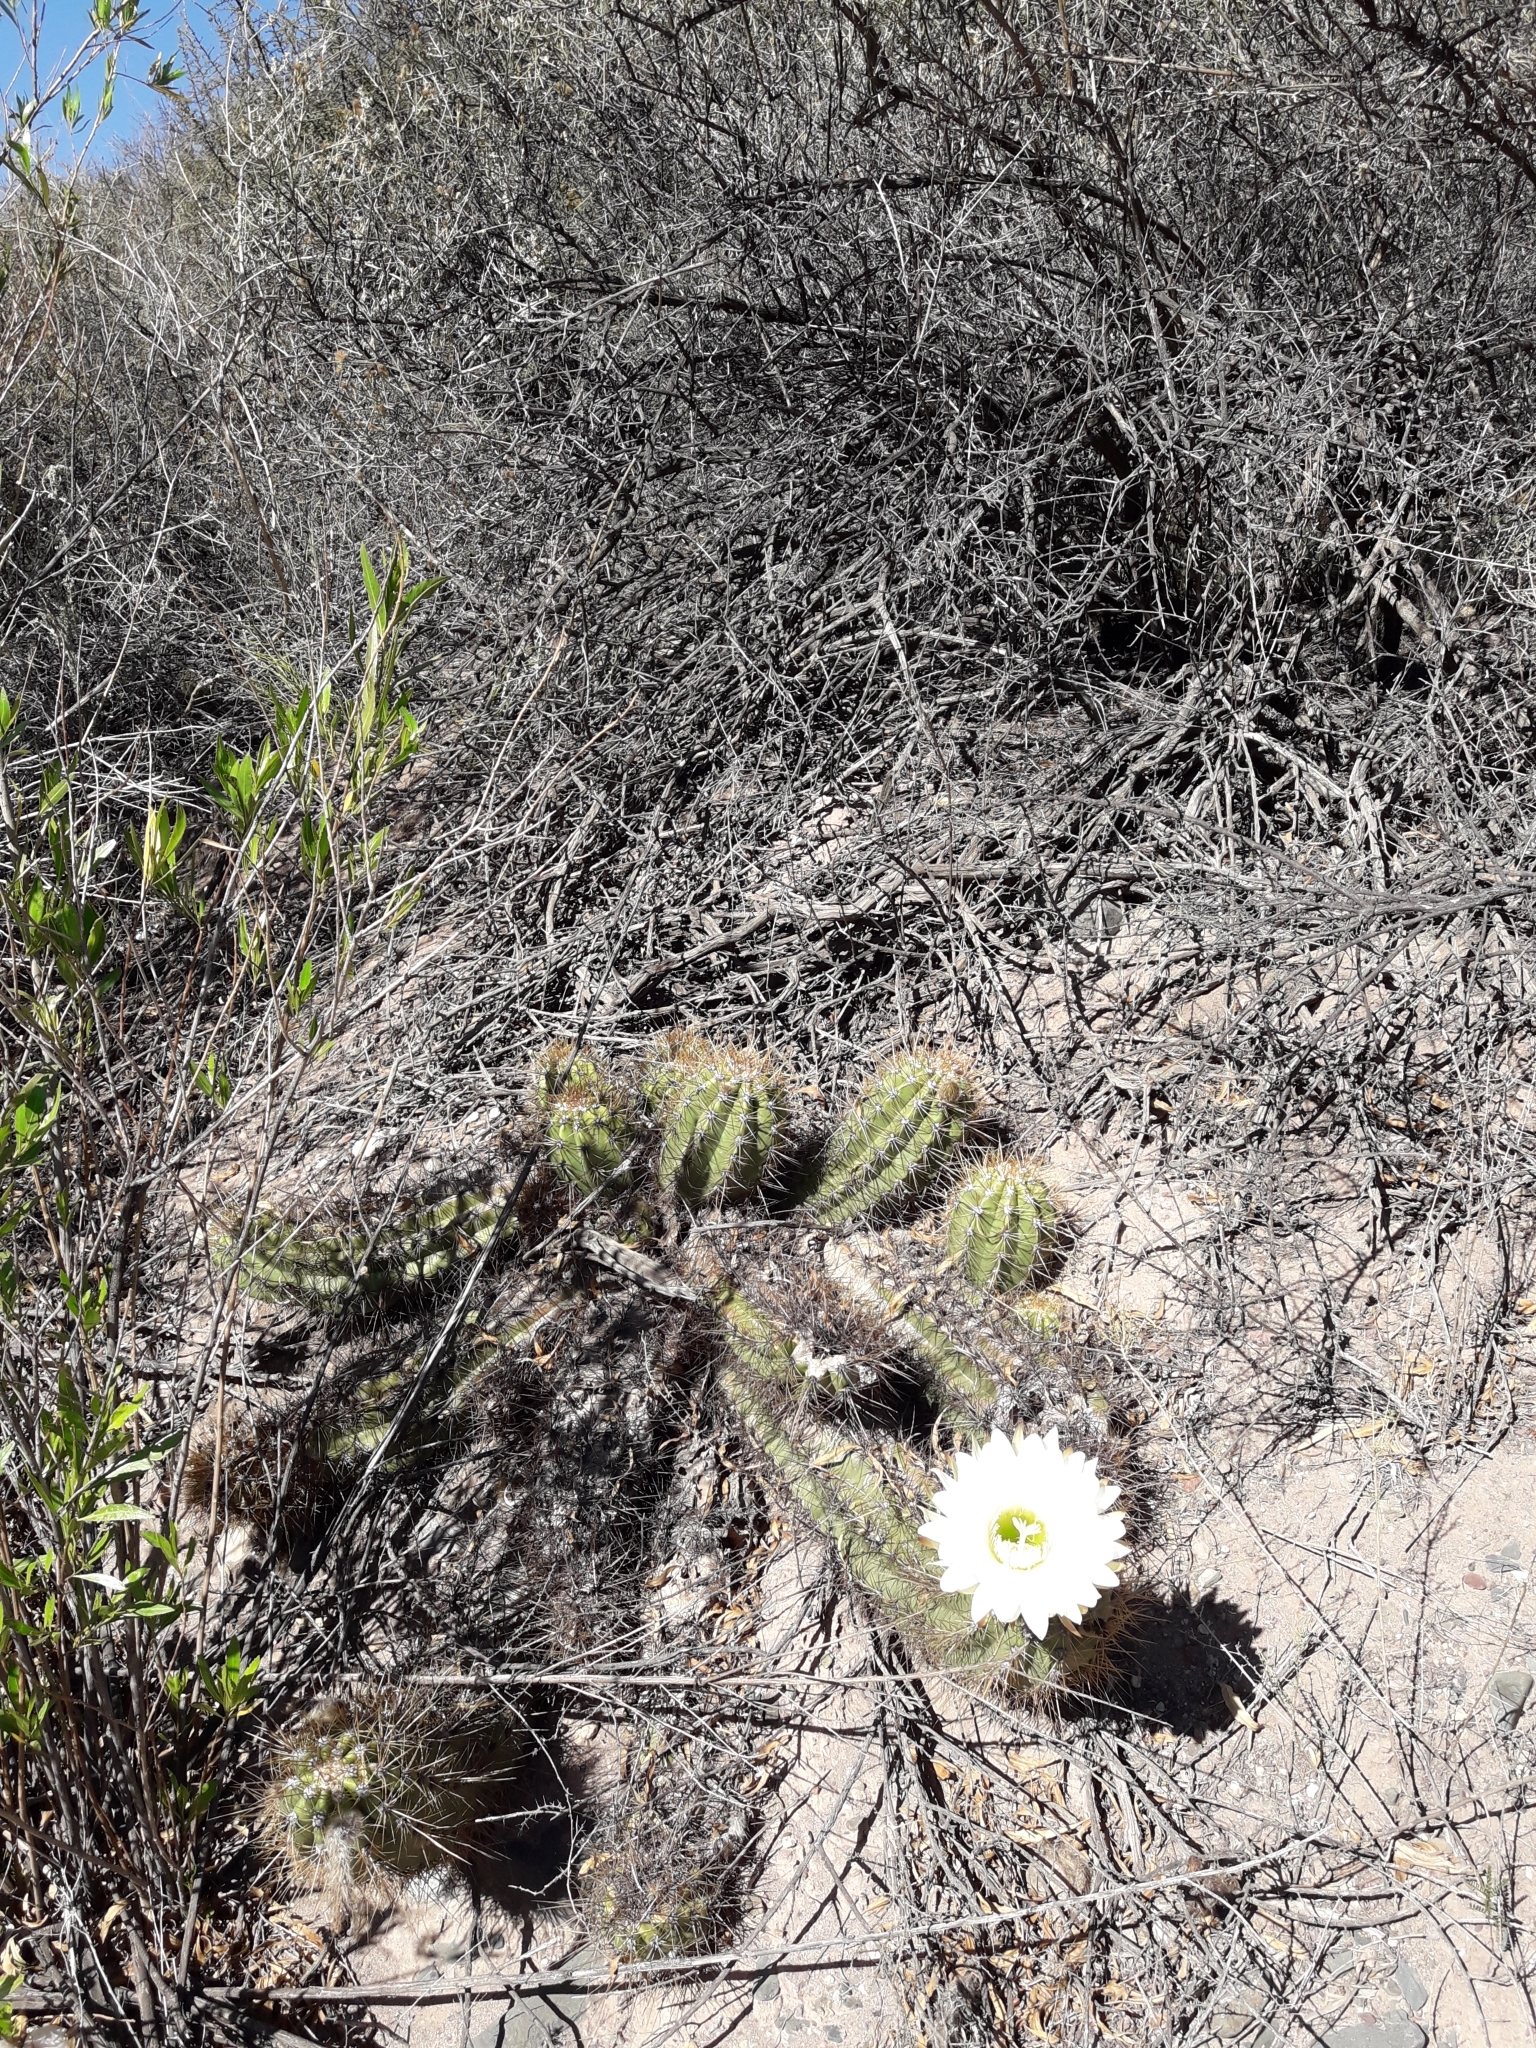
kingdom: Plantae
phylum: Tracheophyta
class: Magnoliopsida
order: Caryophyllales
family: Cactaceae
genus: Soehrensia
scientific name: Soehrensia candicans
